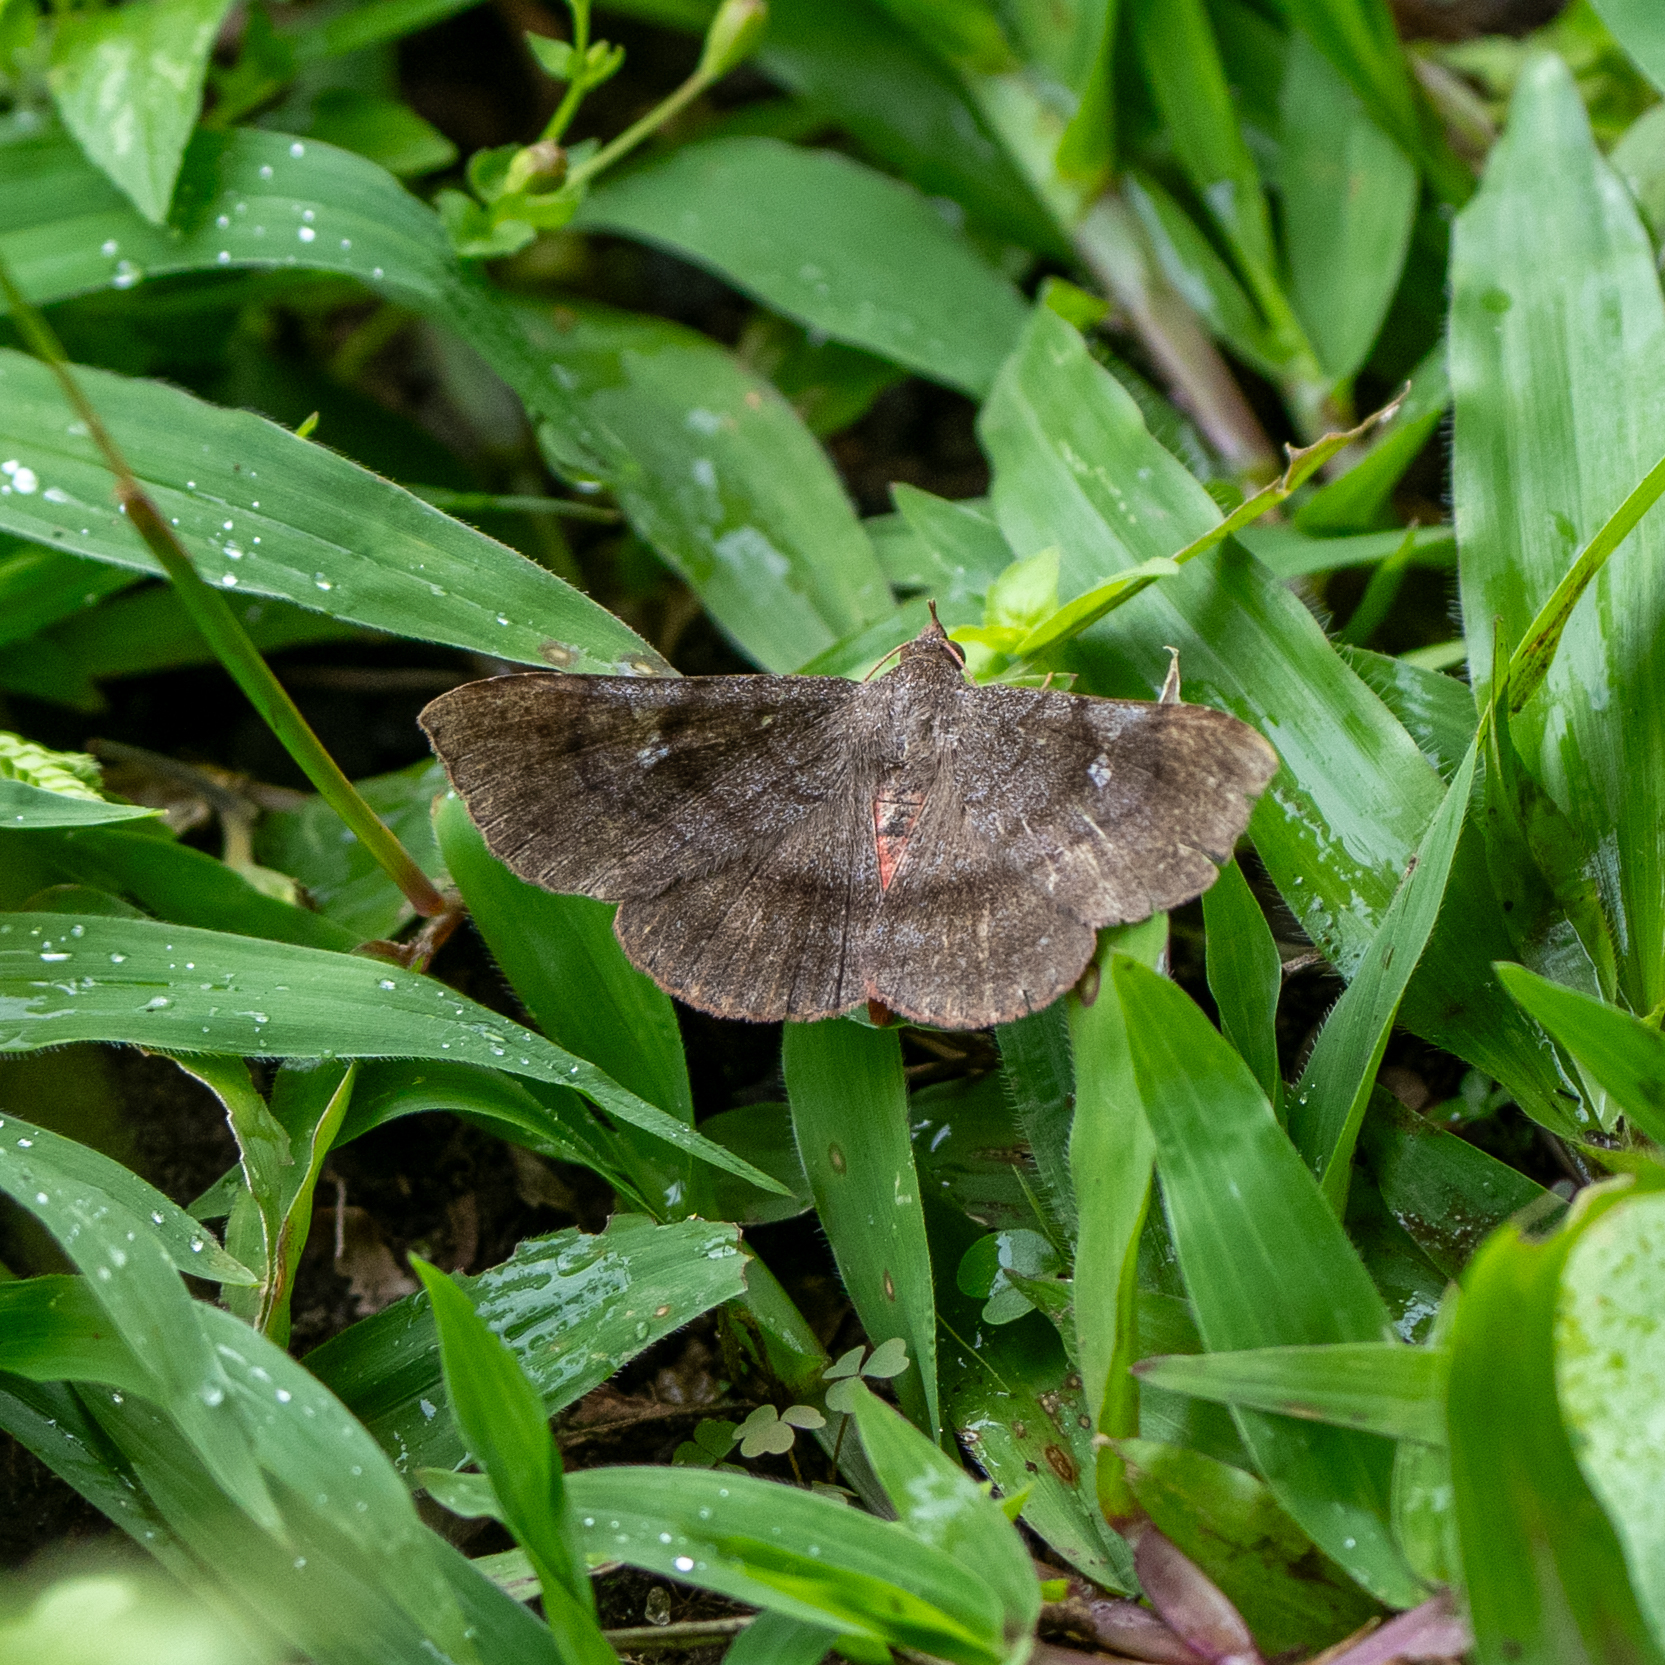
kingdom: Animalia
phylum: Arthropoda
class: Insecta
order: Lepidoptera
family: Erebidae
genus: Azeta
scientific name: Azeta melanea
